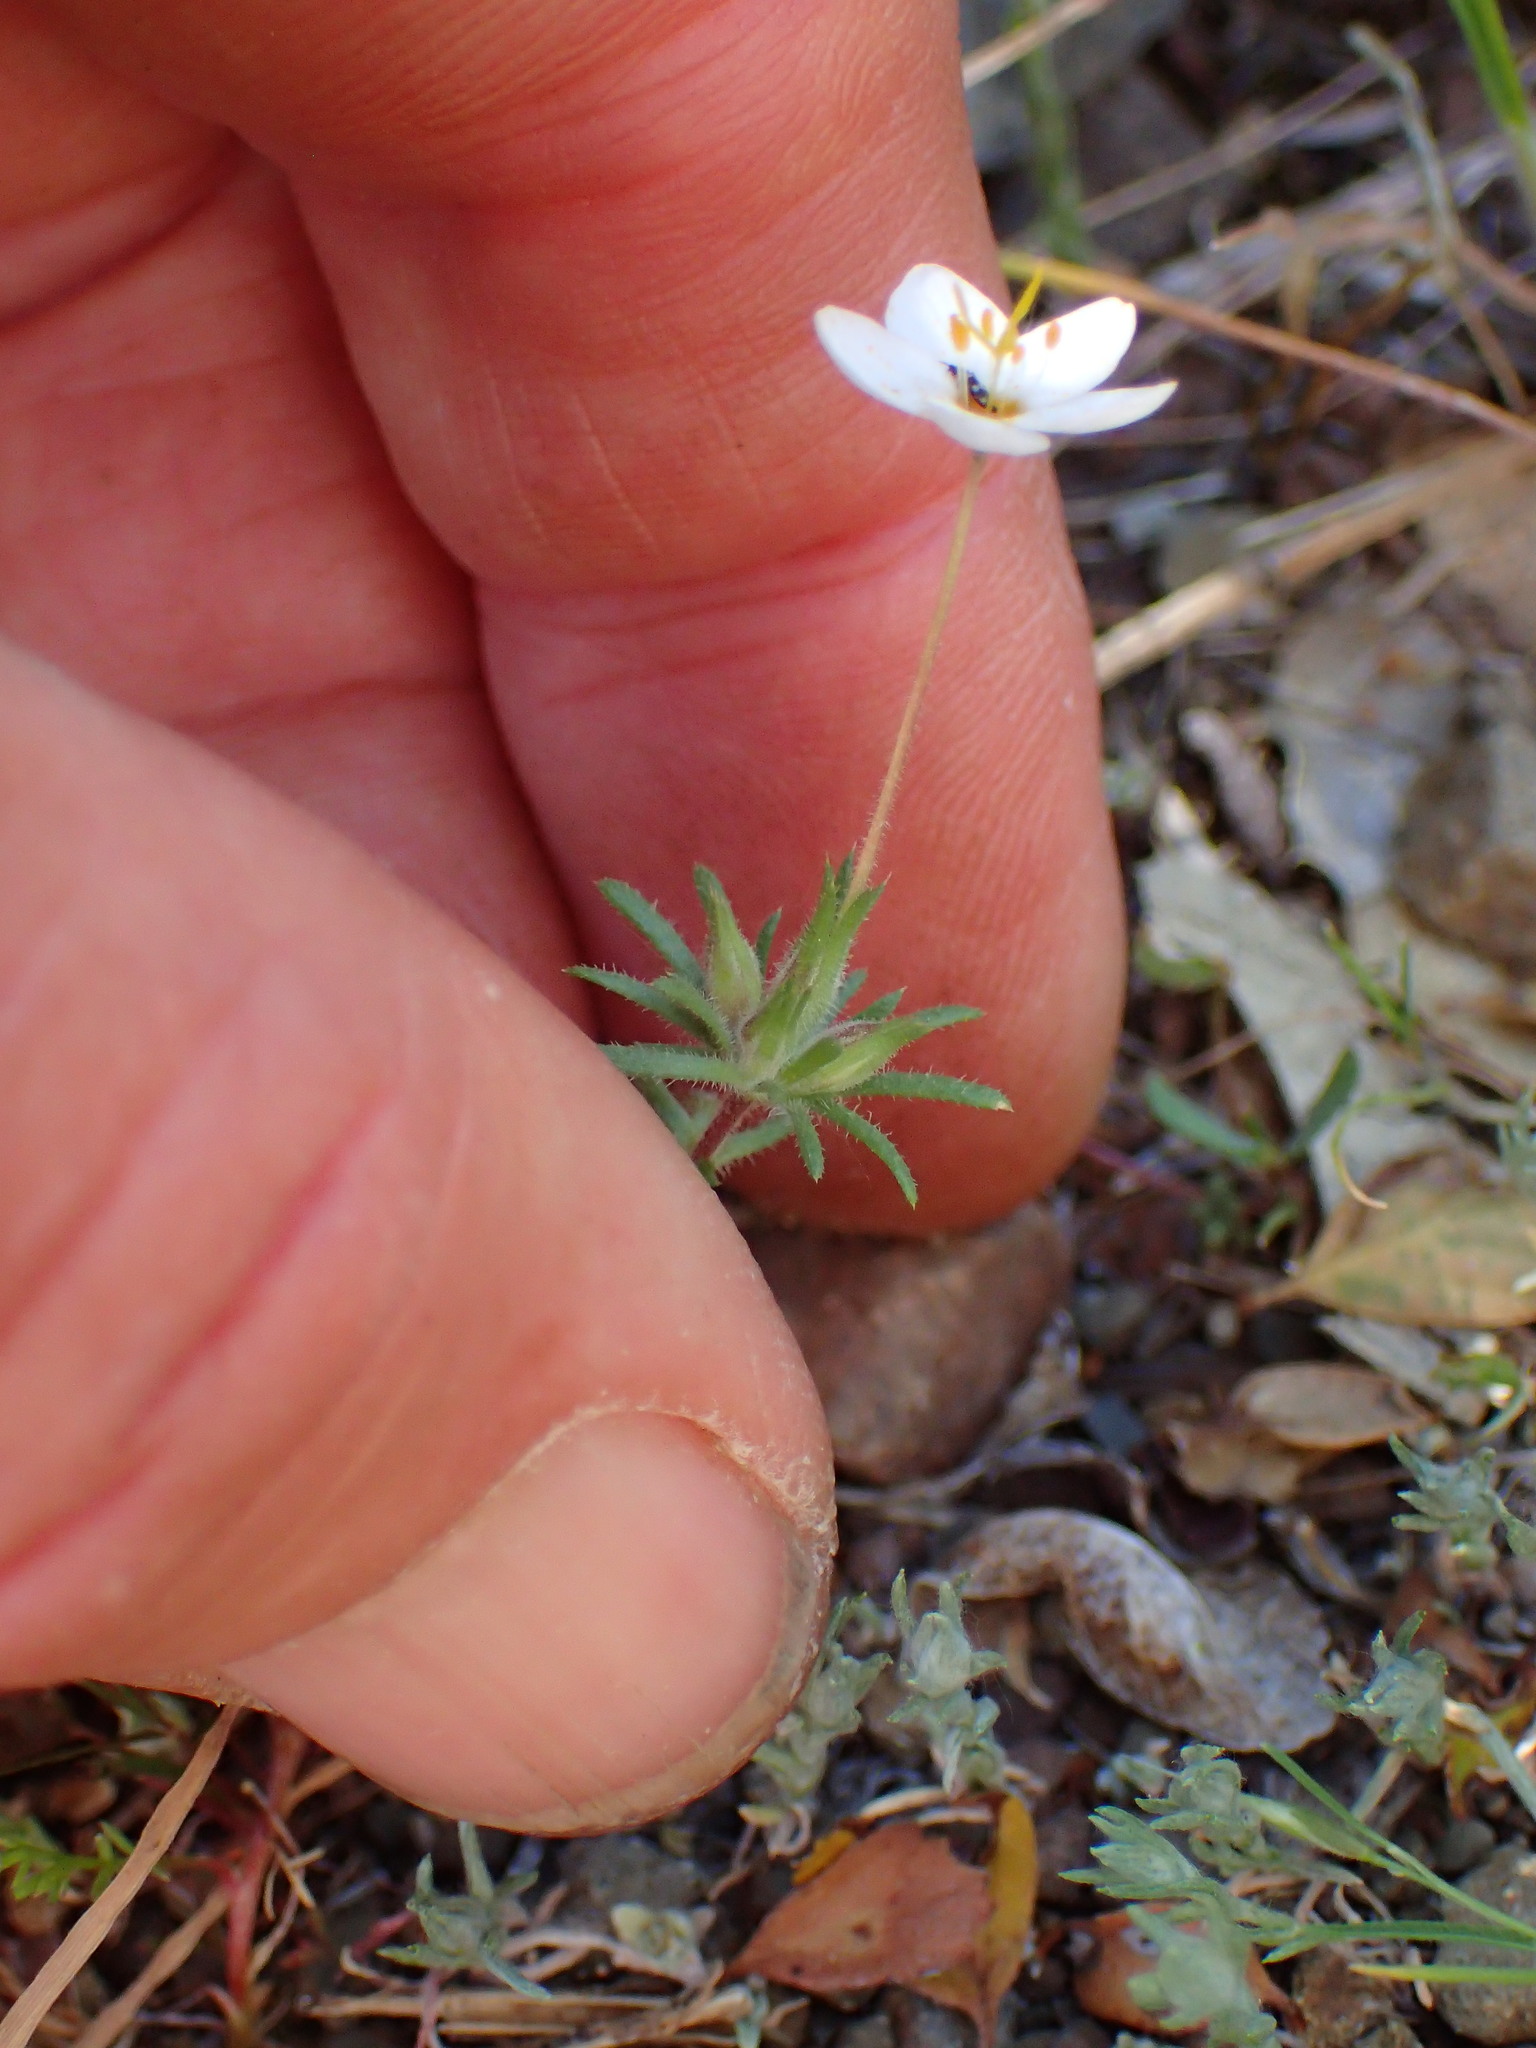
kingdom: Plantae
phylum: Tracheophyta
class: Magnoliopsida
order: Ericales
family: Polemoniaceae
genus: Leptosiphon
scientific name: Leptosiphon parviflorus
